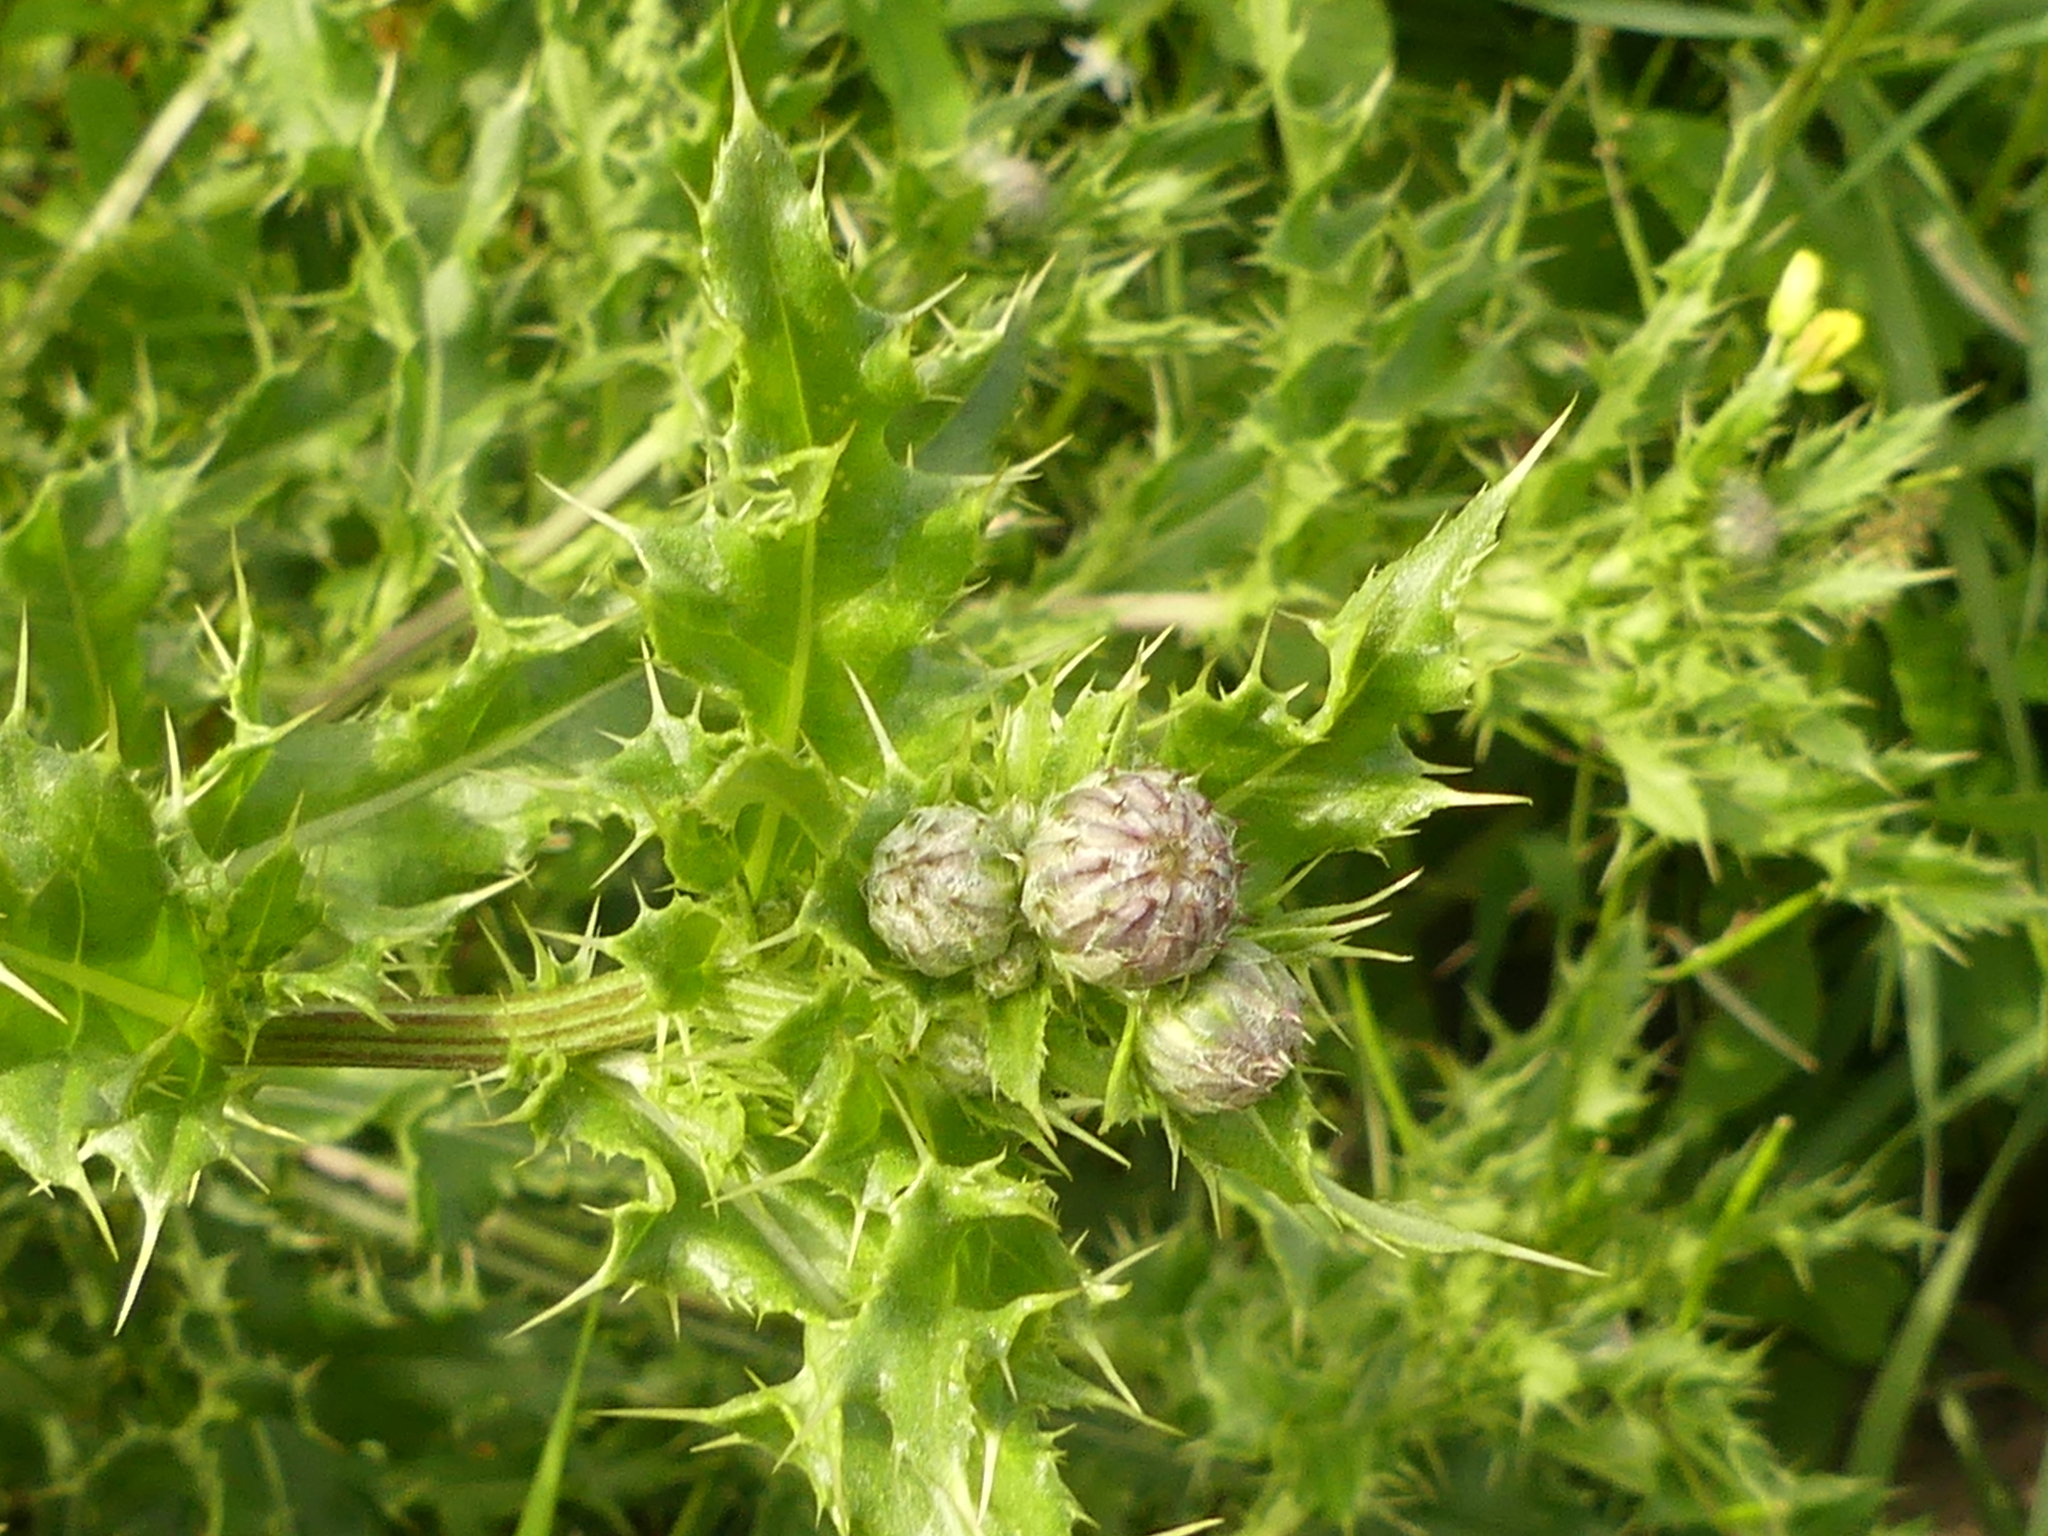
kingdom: Plantae
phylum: Tracheophyta
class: Magnoliopsida
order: Asterales
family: Asteraceae
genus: Cirsium
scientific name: Cirsium arvense
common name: Creeping thistle
